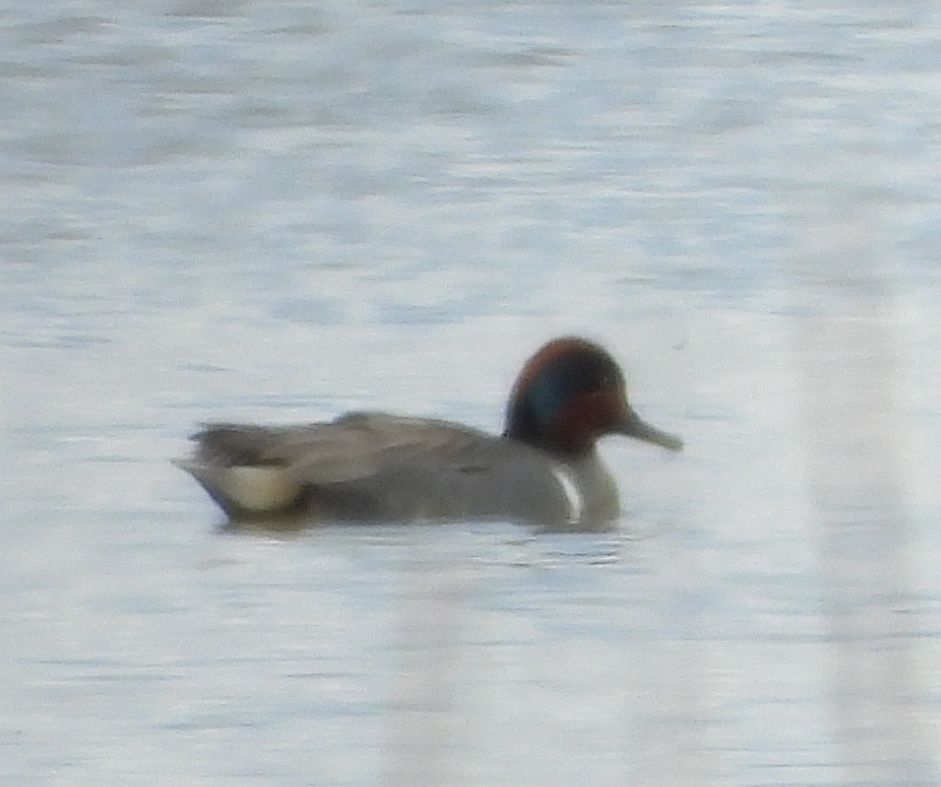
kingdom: Animalia
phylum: Chordata
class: Aves
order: Anseriformes
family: Anatidae
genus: Anas
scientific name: Anas crecca
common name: Eurasian teal
